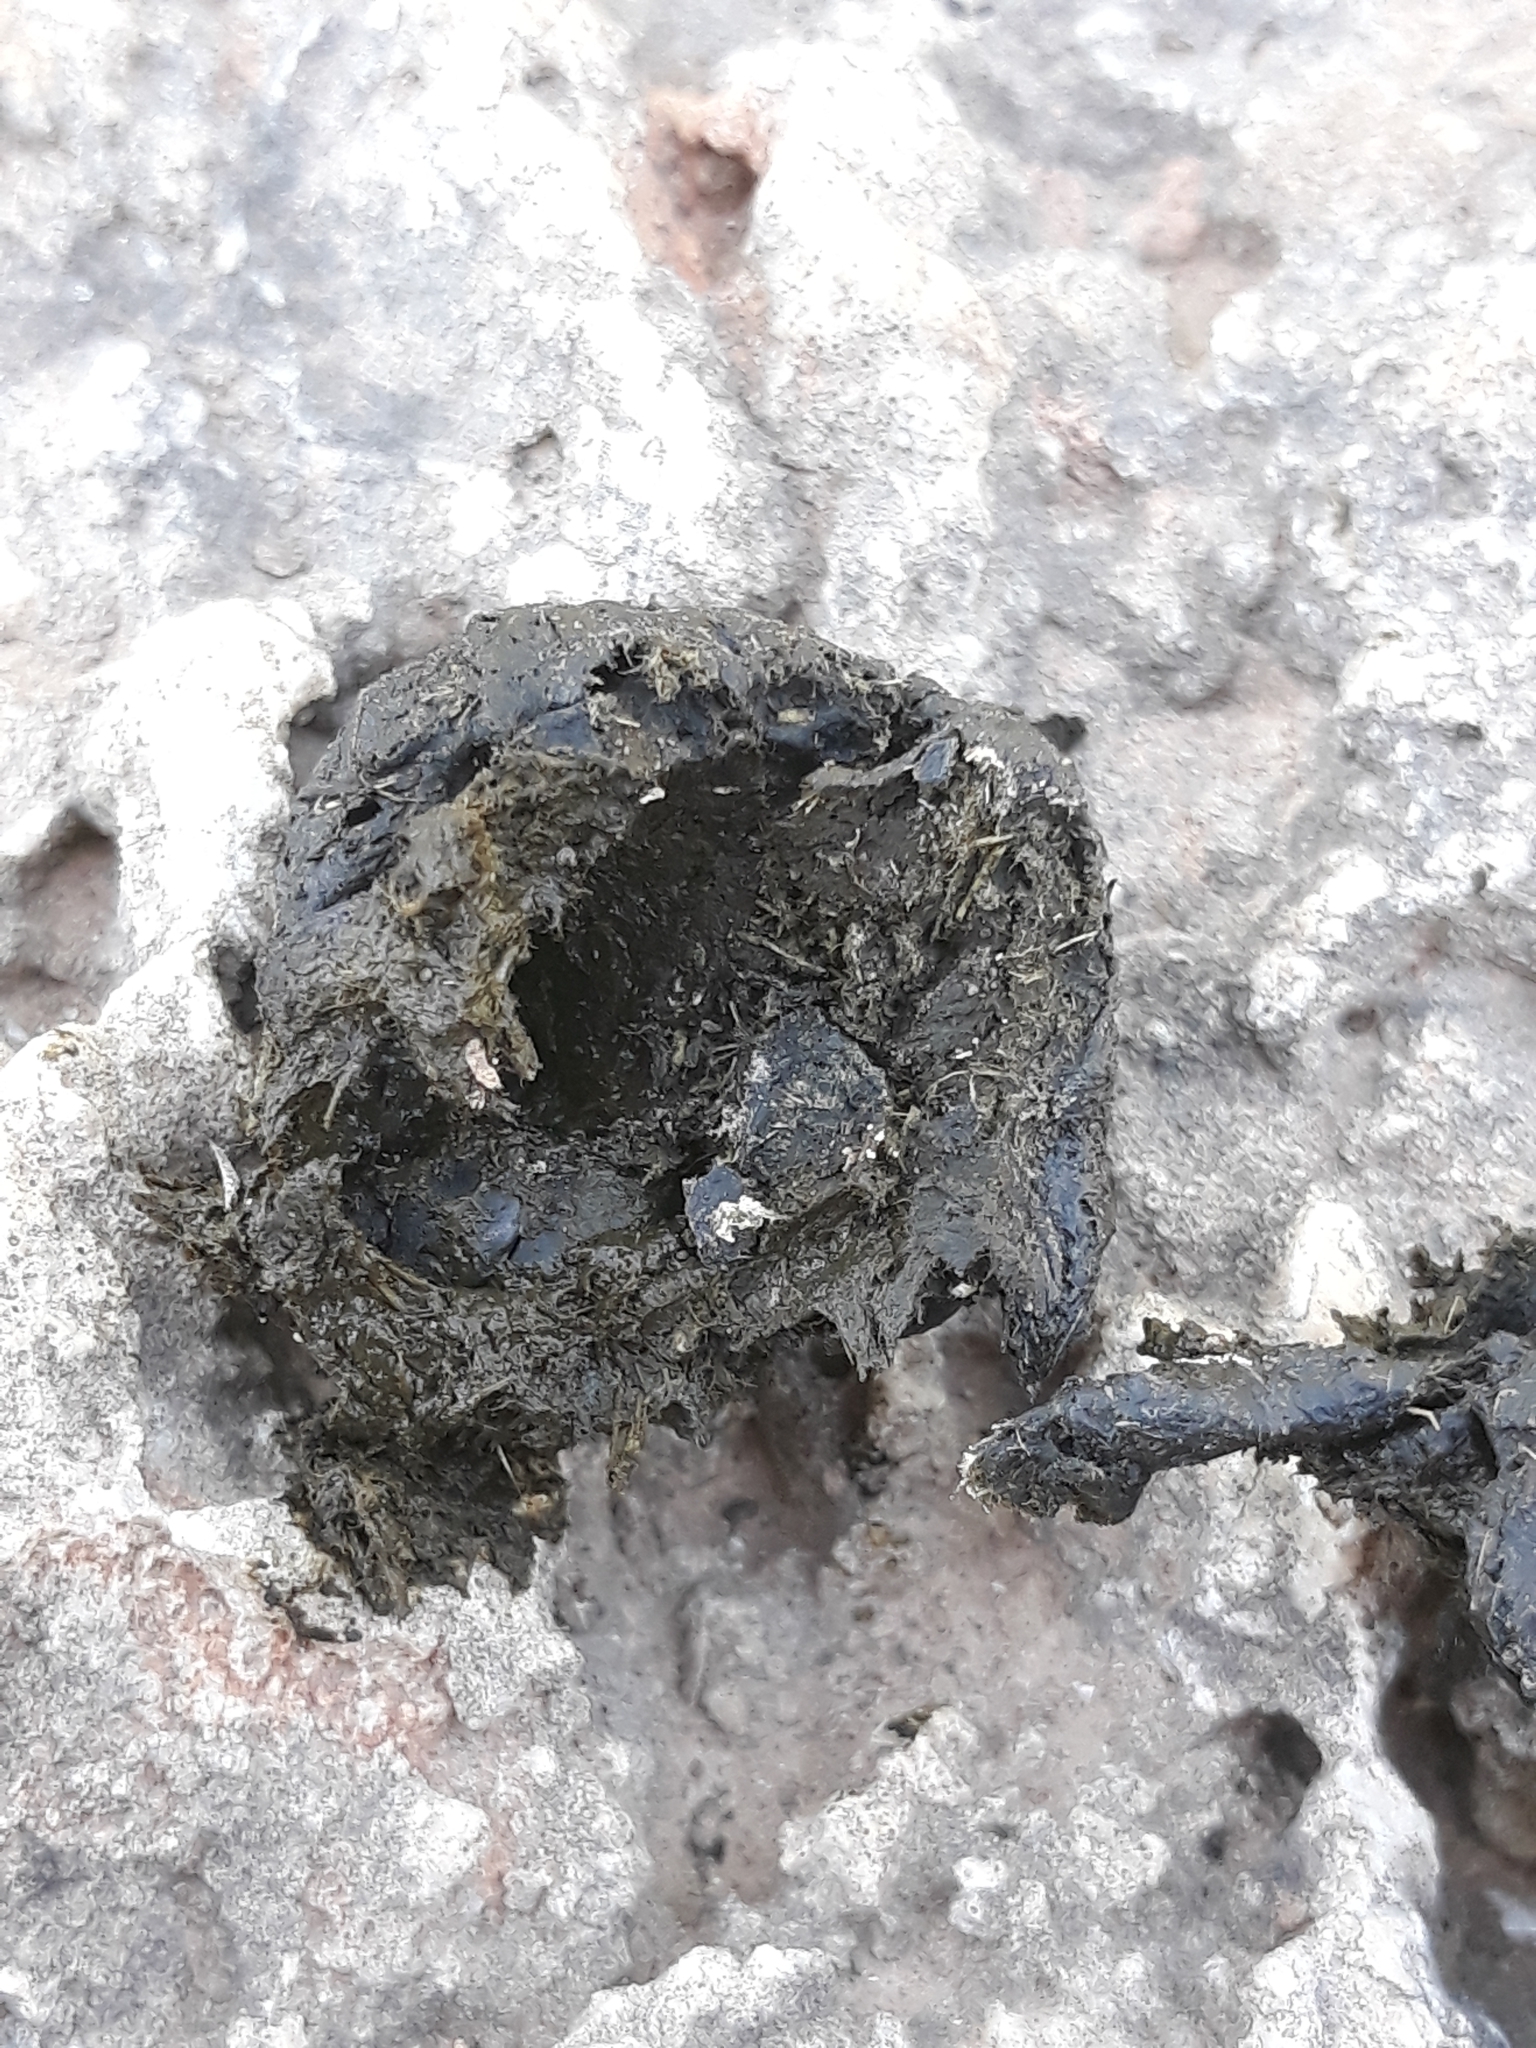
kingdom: Animalia
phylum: Chordata
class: Mammalia
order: Artiodactyla
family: Bovidae
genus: Ovis
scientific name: Ovis aries
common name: Domestic sheep
